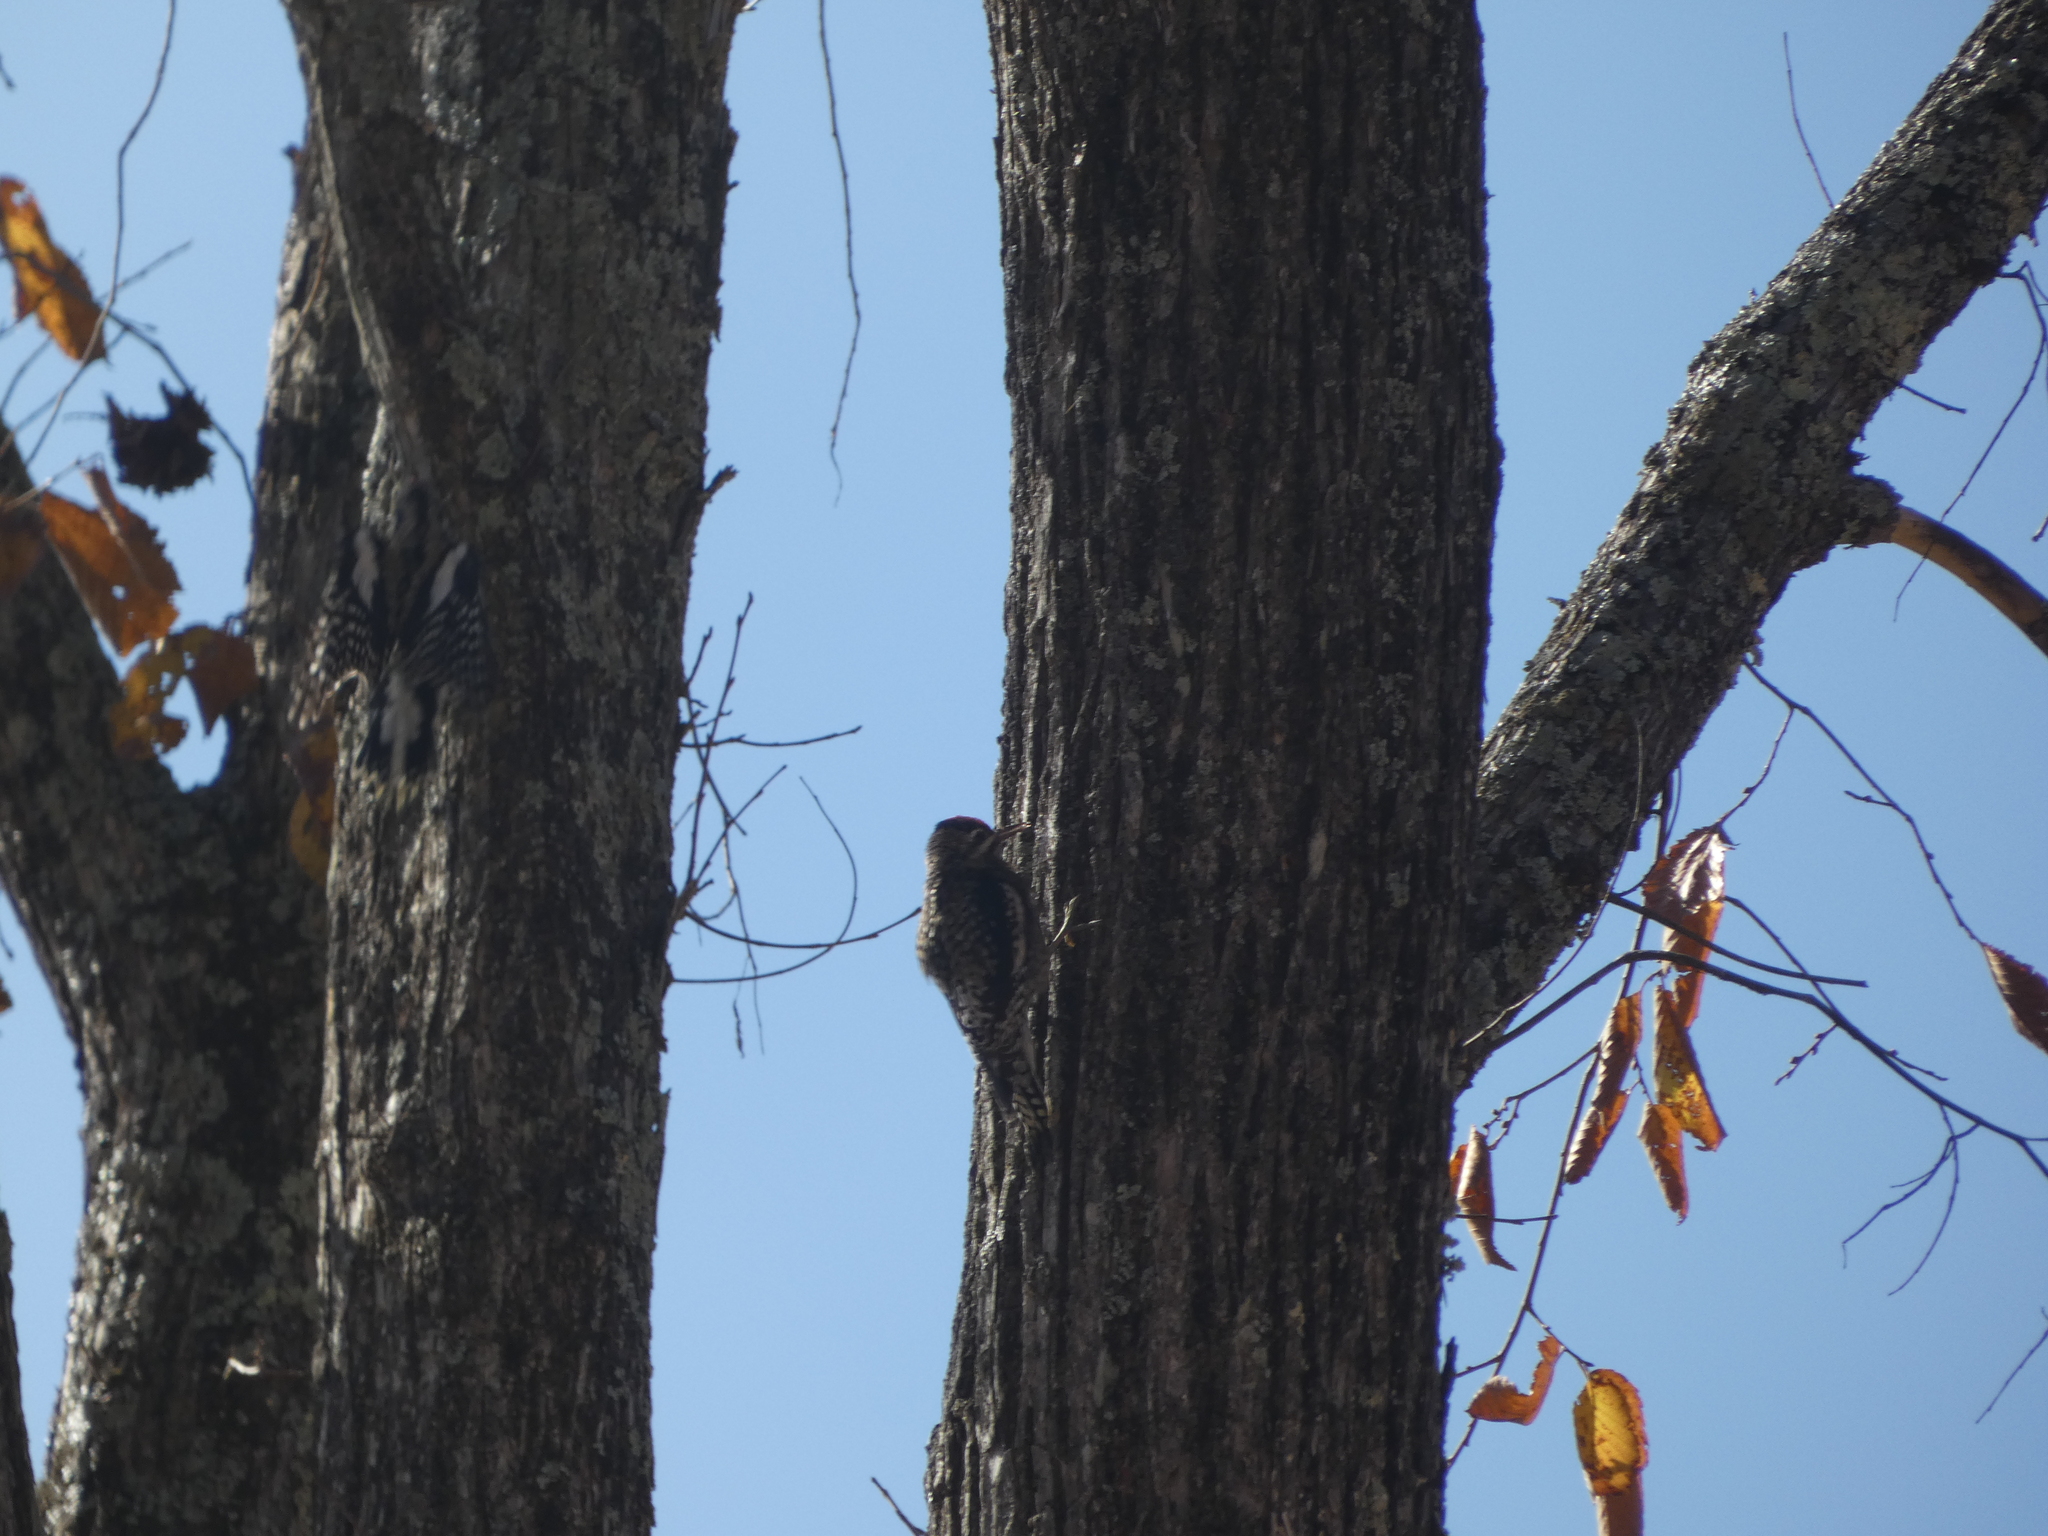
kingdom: Animalia
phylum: Chordata
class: Aves
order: Piciformes
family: Picidae
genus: Sphyrapicus
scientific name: Sphyrapicus varius
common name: Yellow-bellied sapsucker
